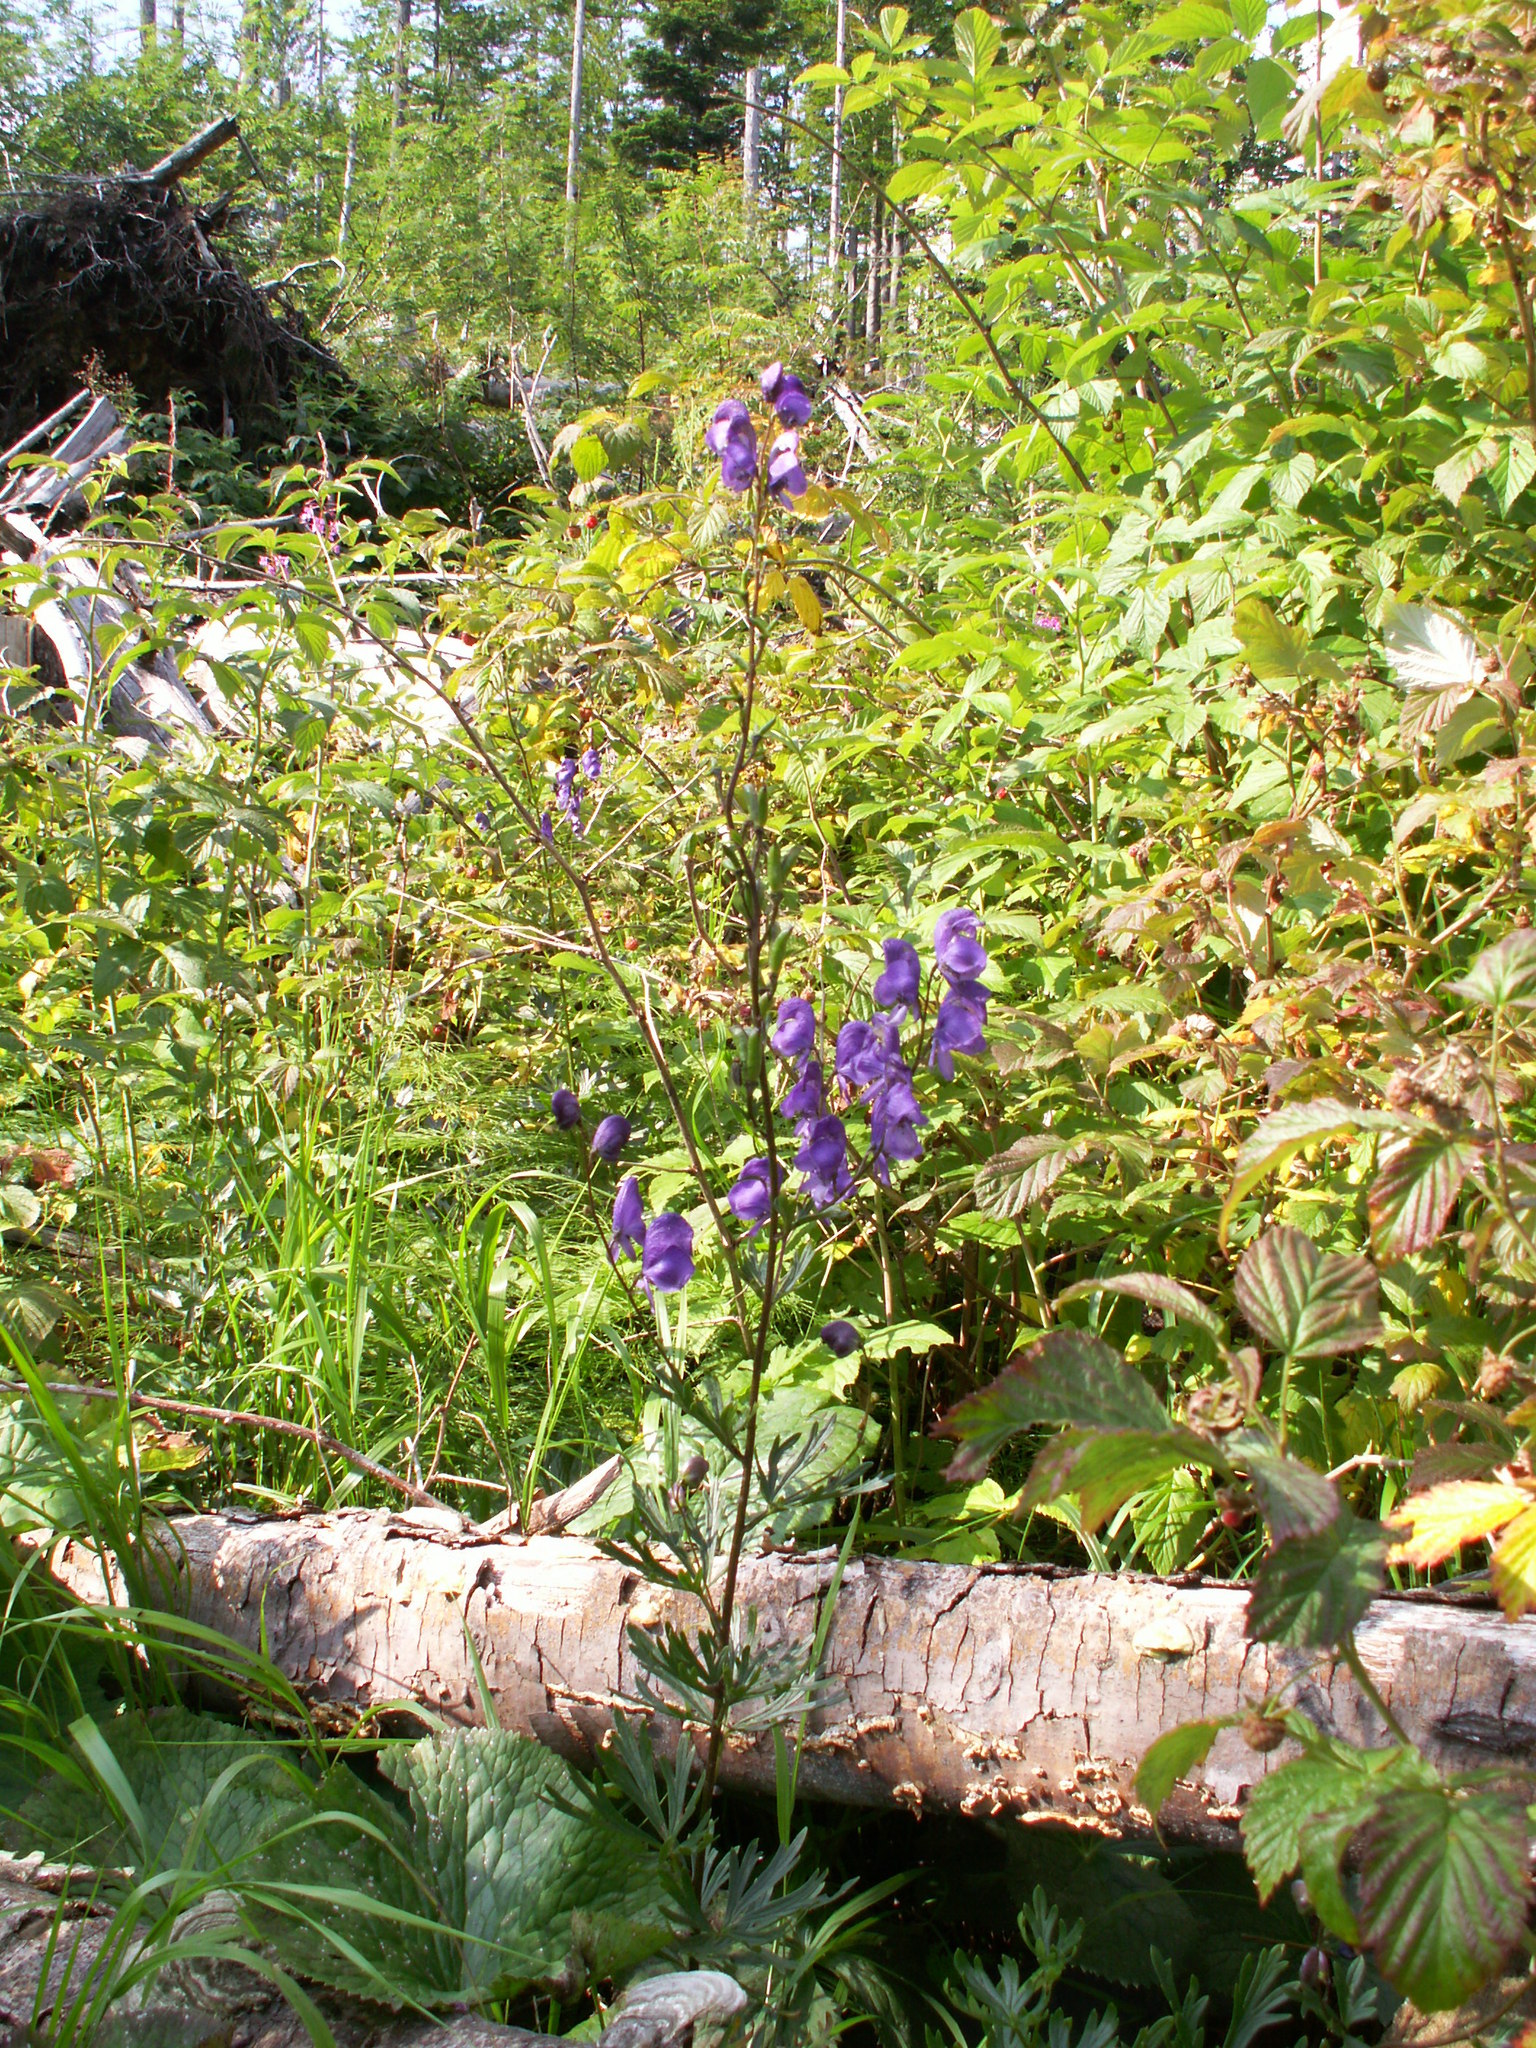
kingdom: Plantae
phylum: Tracheophyta
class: Magnoliopsida
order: Ranunculales
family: Ranunculaceae
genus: Aconitum
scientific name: Aconitum napellus
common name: Garden monkshood
